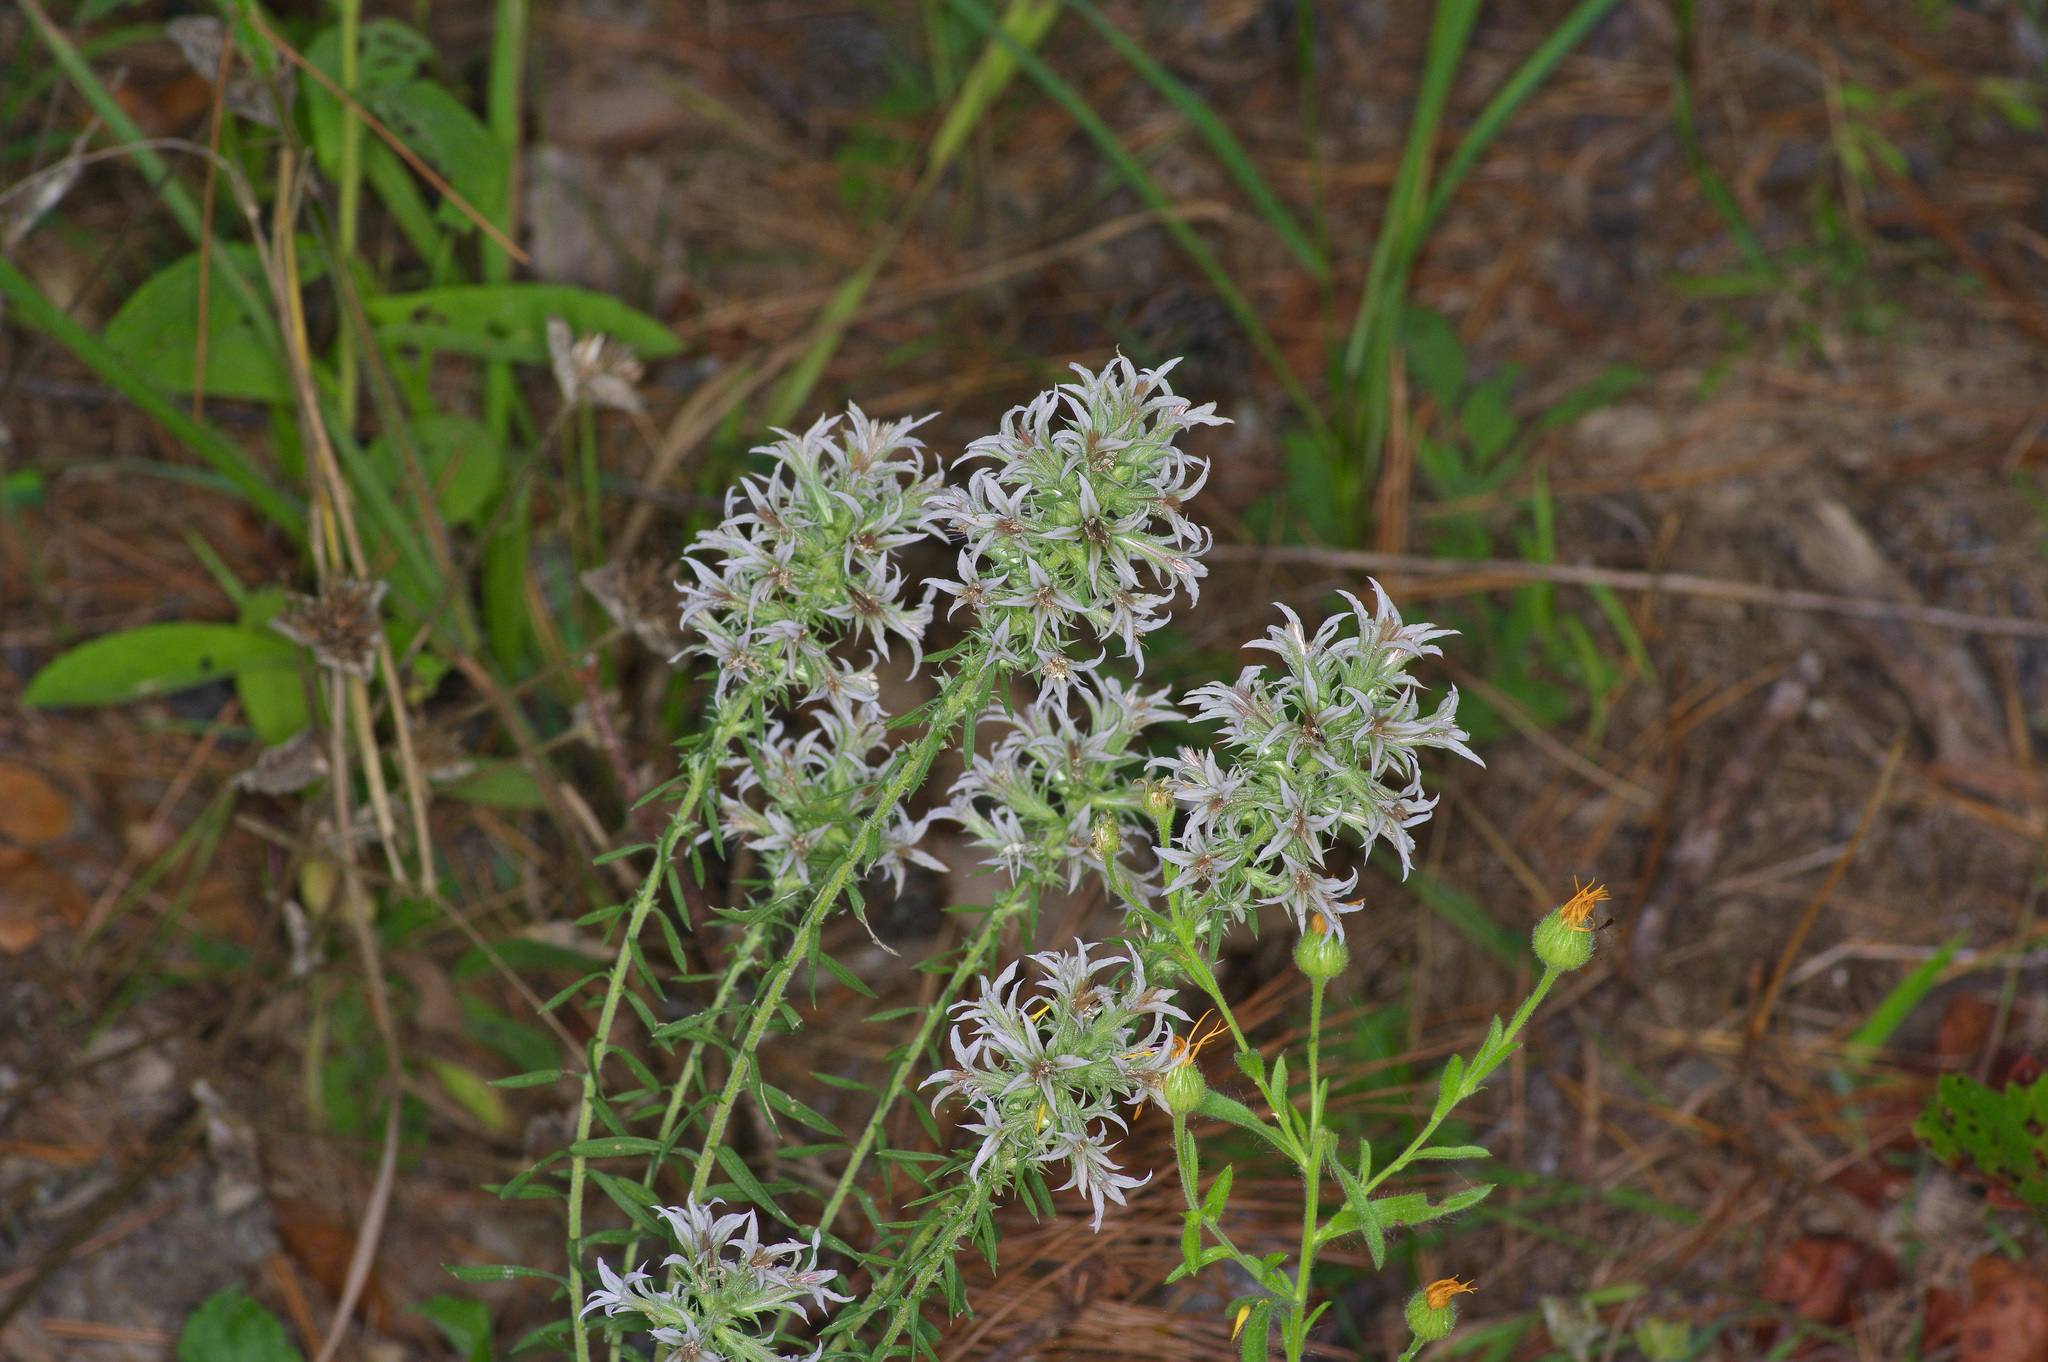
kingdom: Plantae
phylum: Tracheophyta
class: Magnoliopsida
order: Asterales
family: Asteraceae
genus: Liatris
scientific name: Liatris hesperelegans
